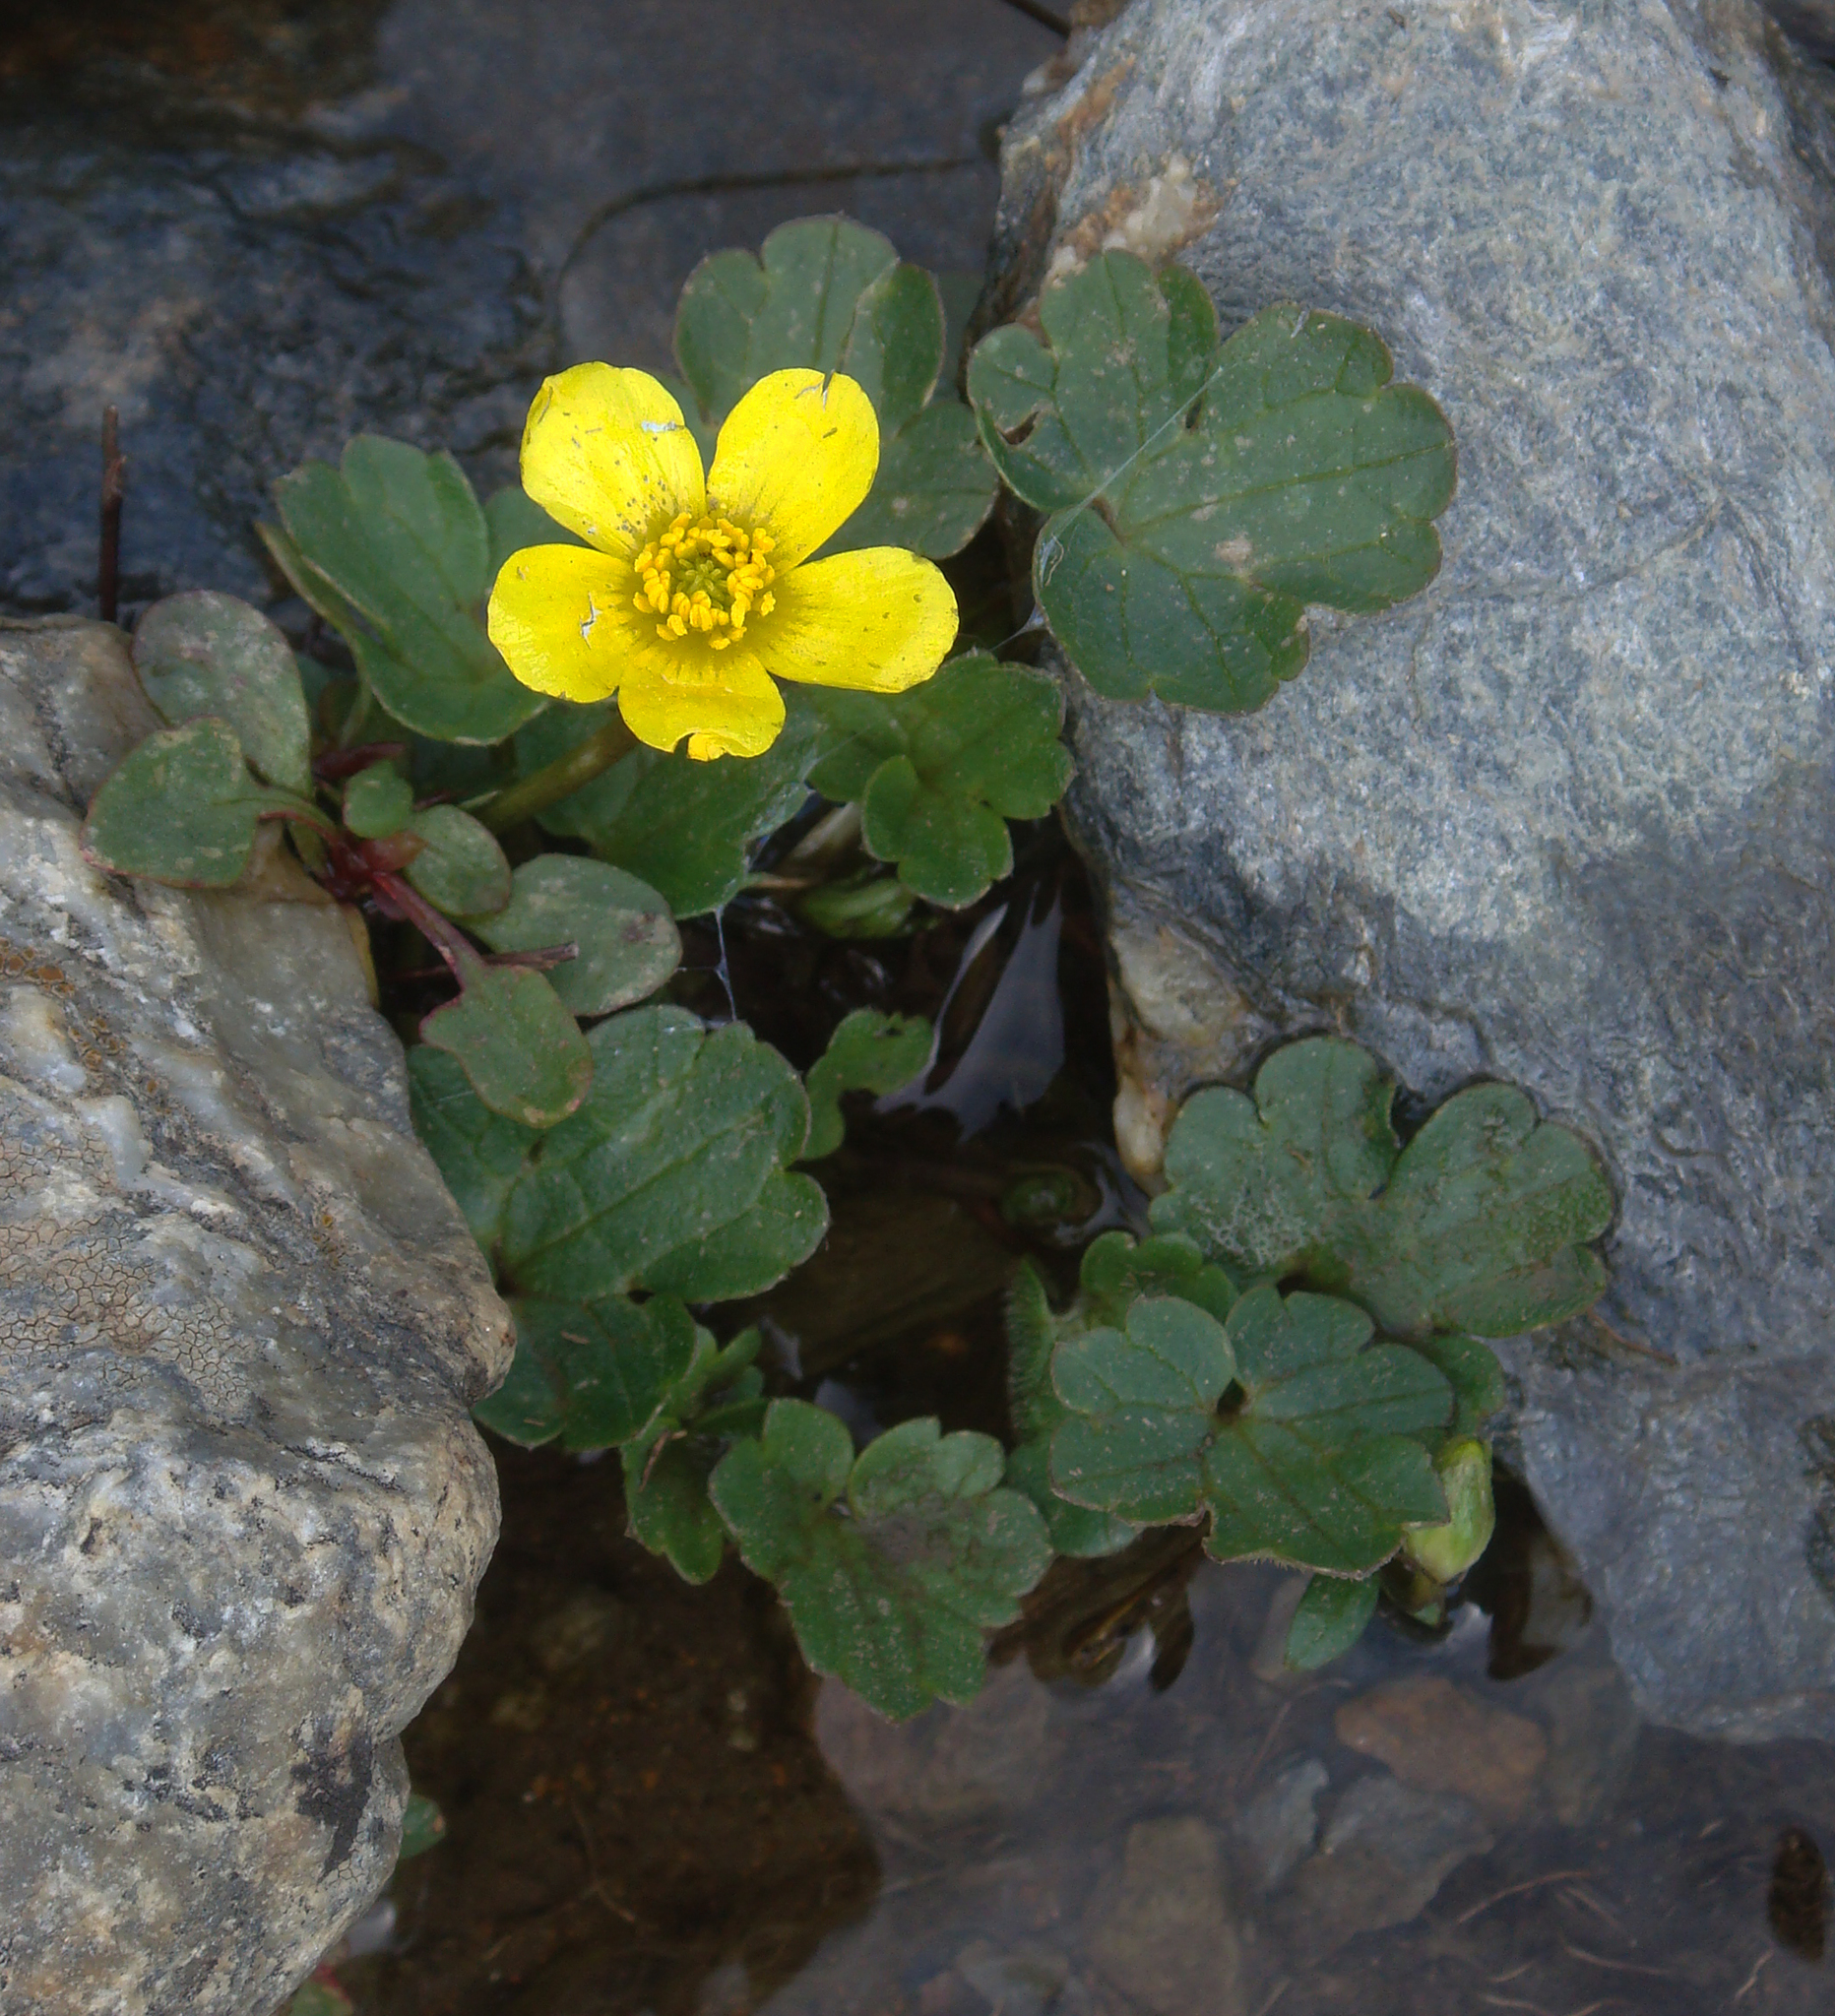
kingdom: Plantae
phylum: Tracheophyta
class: Magnoliopsida
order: Ranunculales
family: Ranunculaceae
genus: Ranunculus
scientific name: Ranunculus cymbalarifolius
